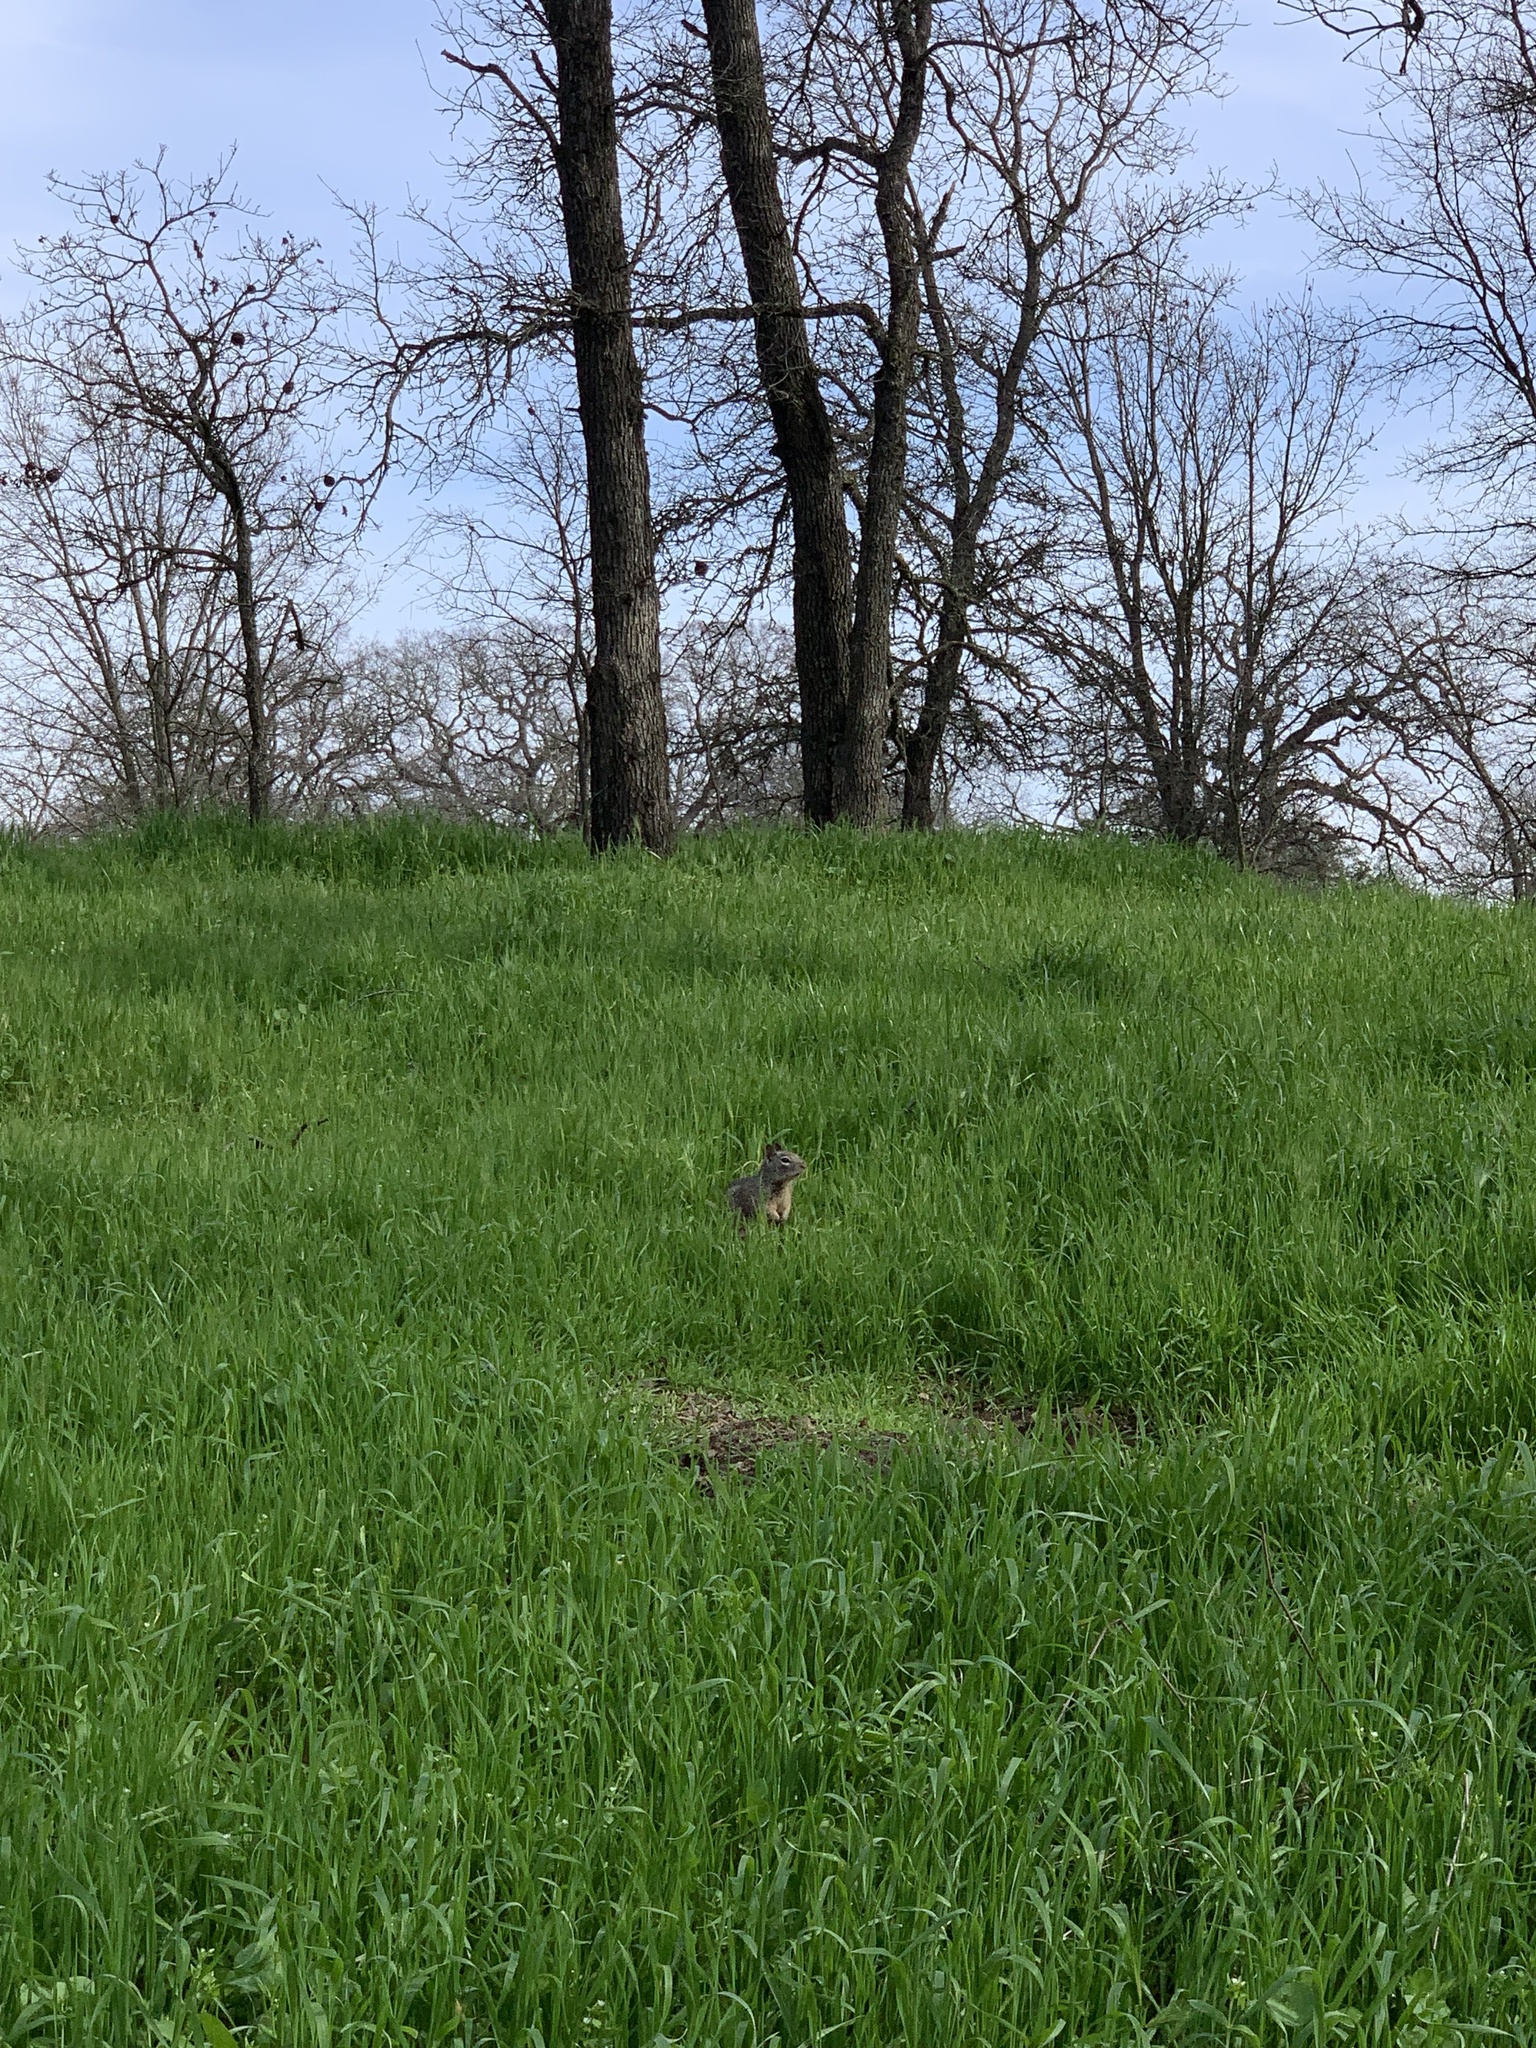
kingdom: Animalia
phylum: Chordata
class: Mammalia
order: Rodentia
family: Sciuridae
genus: Otospermophilus
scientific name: Otospermophilus beecheyi
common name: California ground squirrel
